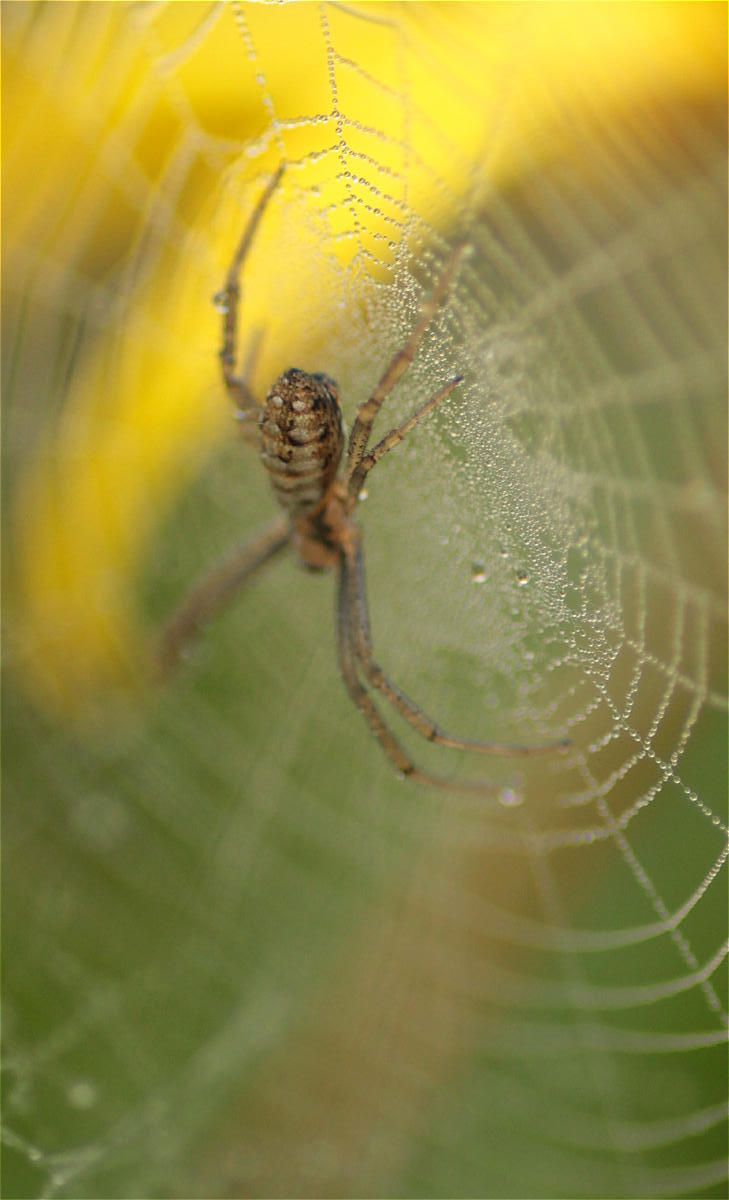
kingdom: Animalia
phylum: Arthropoda
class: Arachnida
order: Araneae
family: Araneidae
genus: Argiope
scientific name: Argiope trifasciata
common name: Banded garden spider
